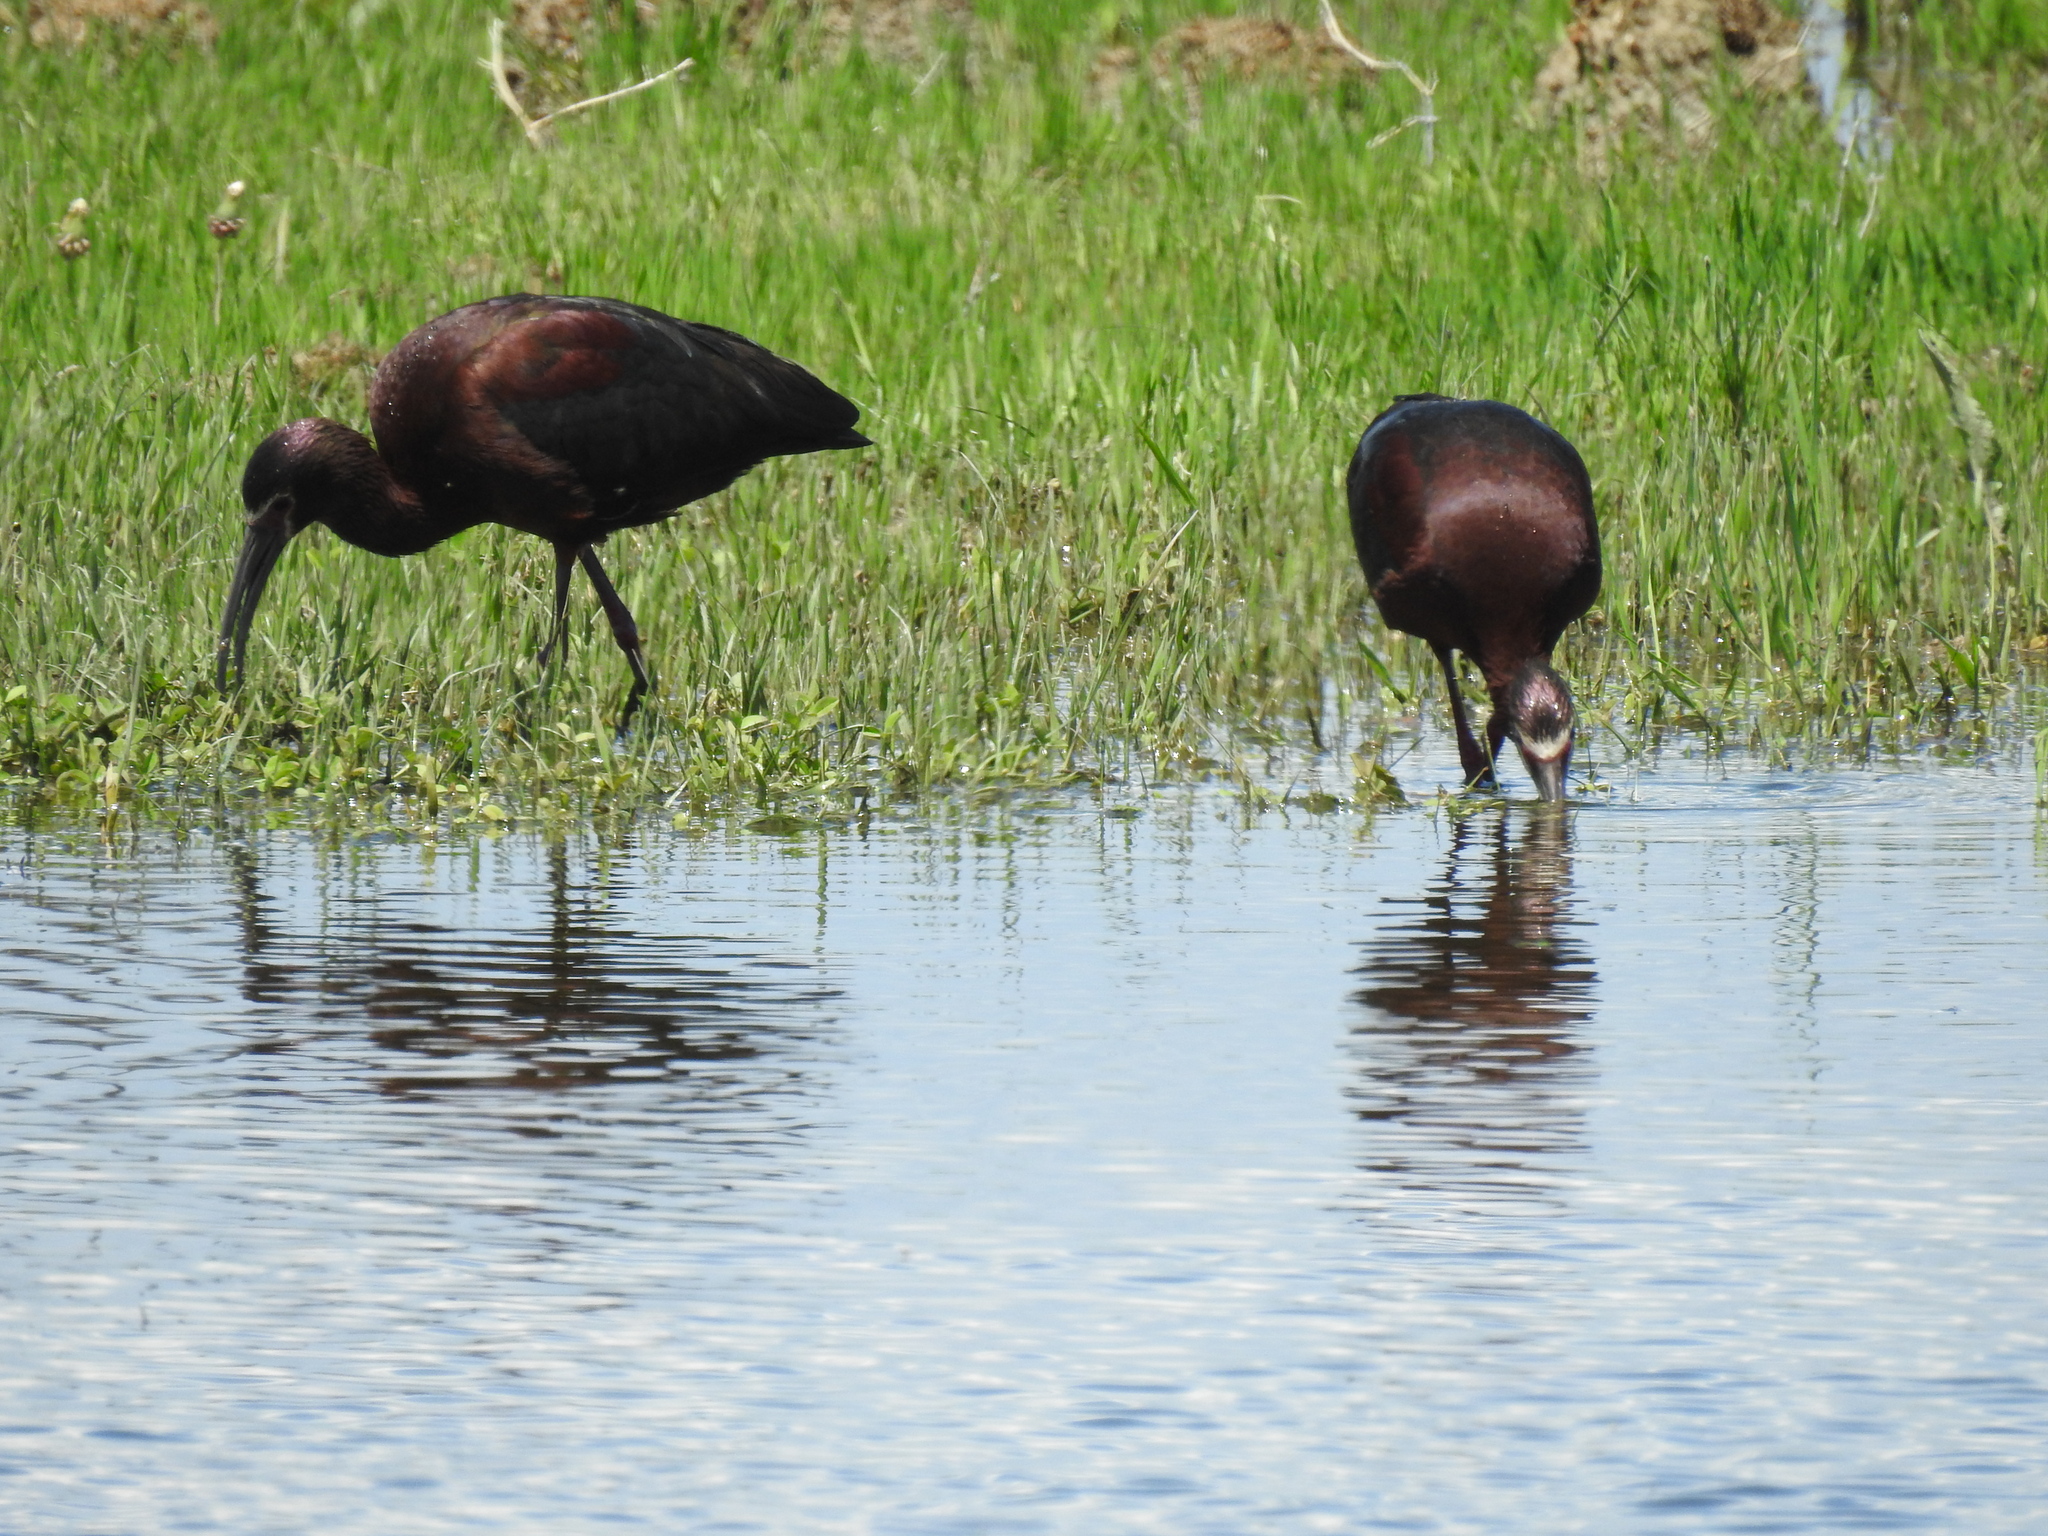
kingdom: Animalia
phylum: Chordata
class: Aves
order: Pelecaniformes
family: Threskiornithidae
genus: Plegadis
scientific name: Plegadis chihi
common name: White-faced ibis
